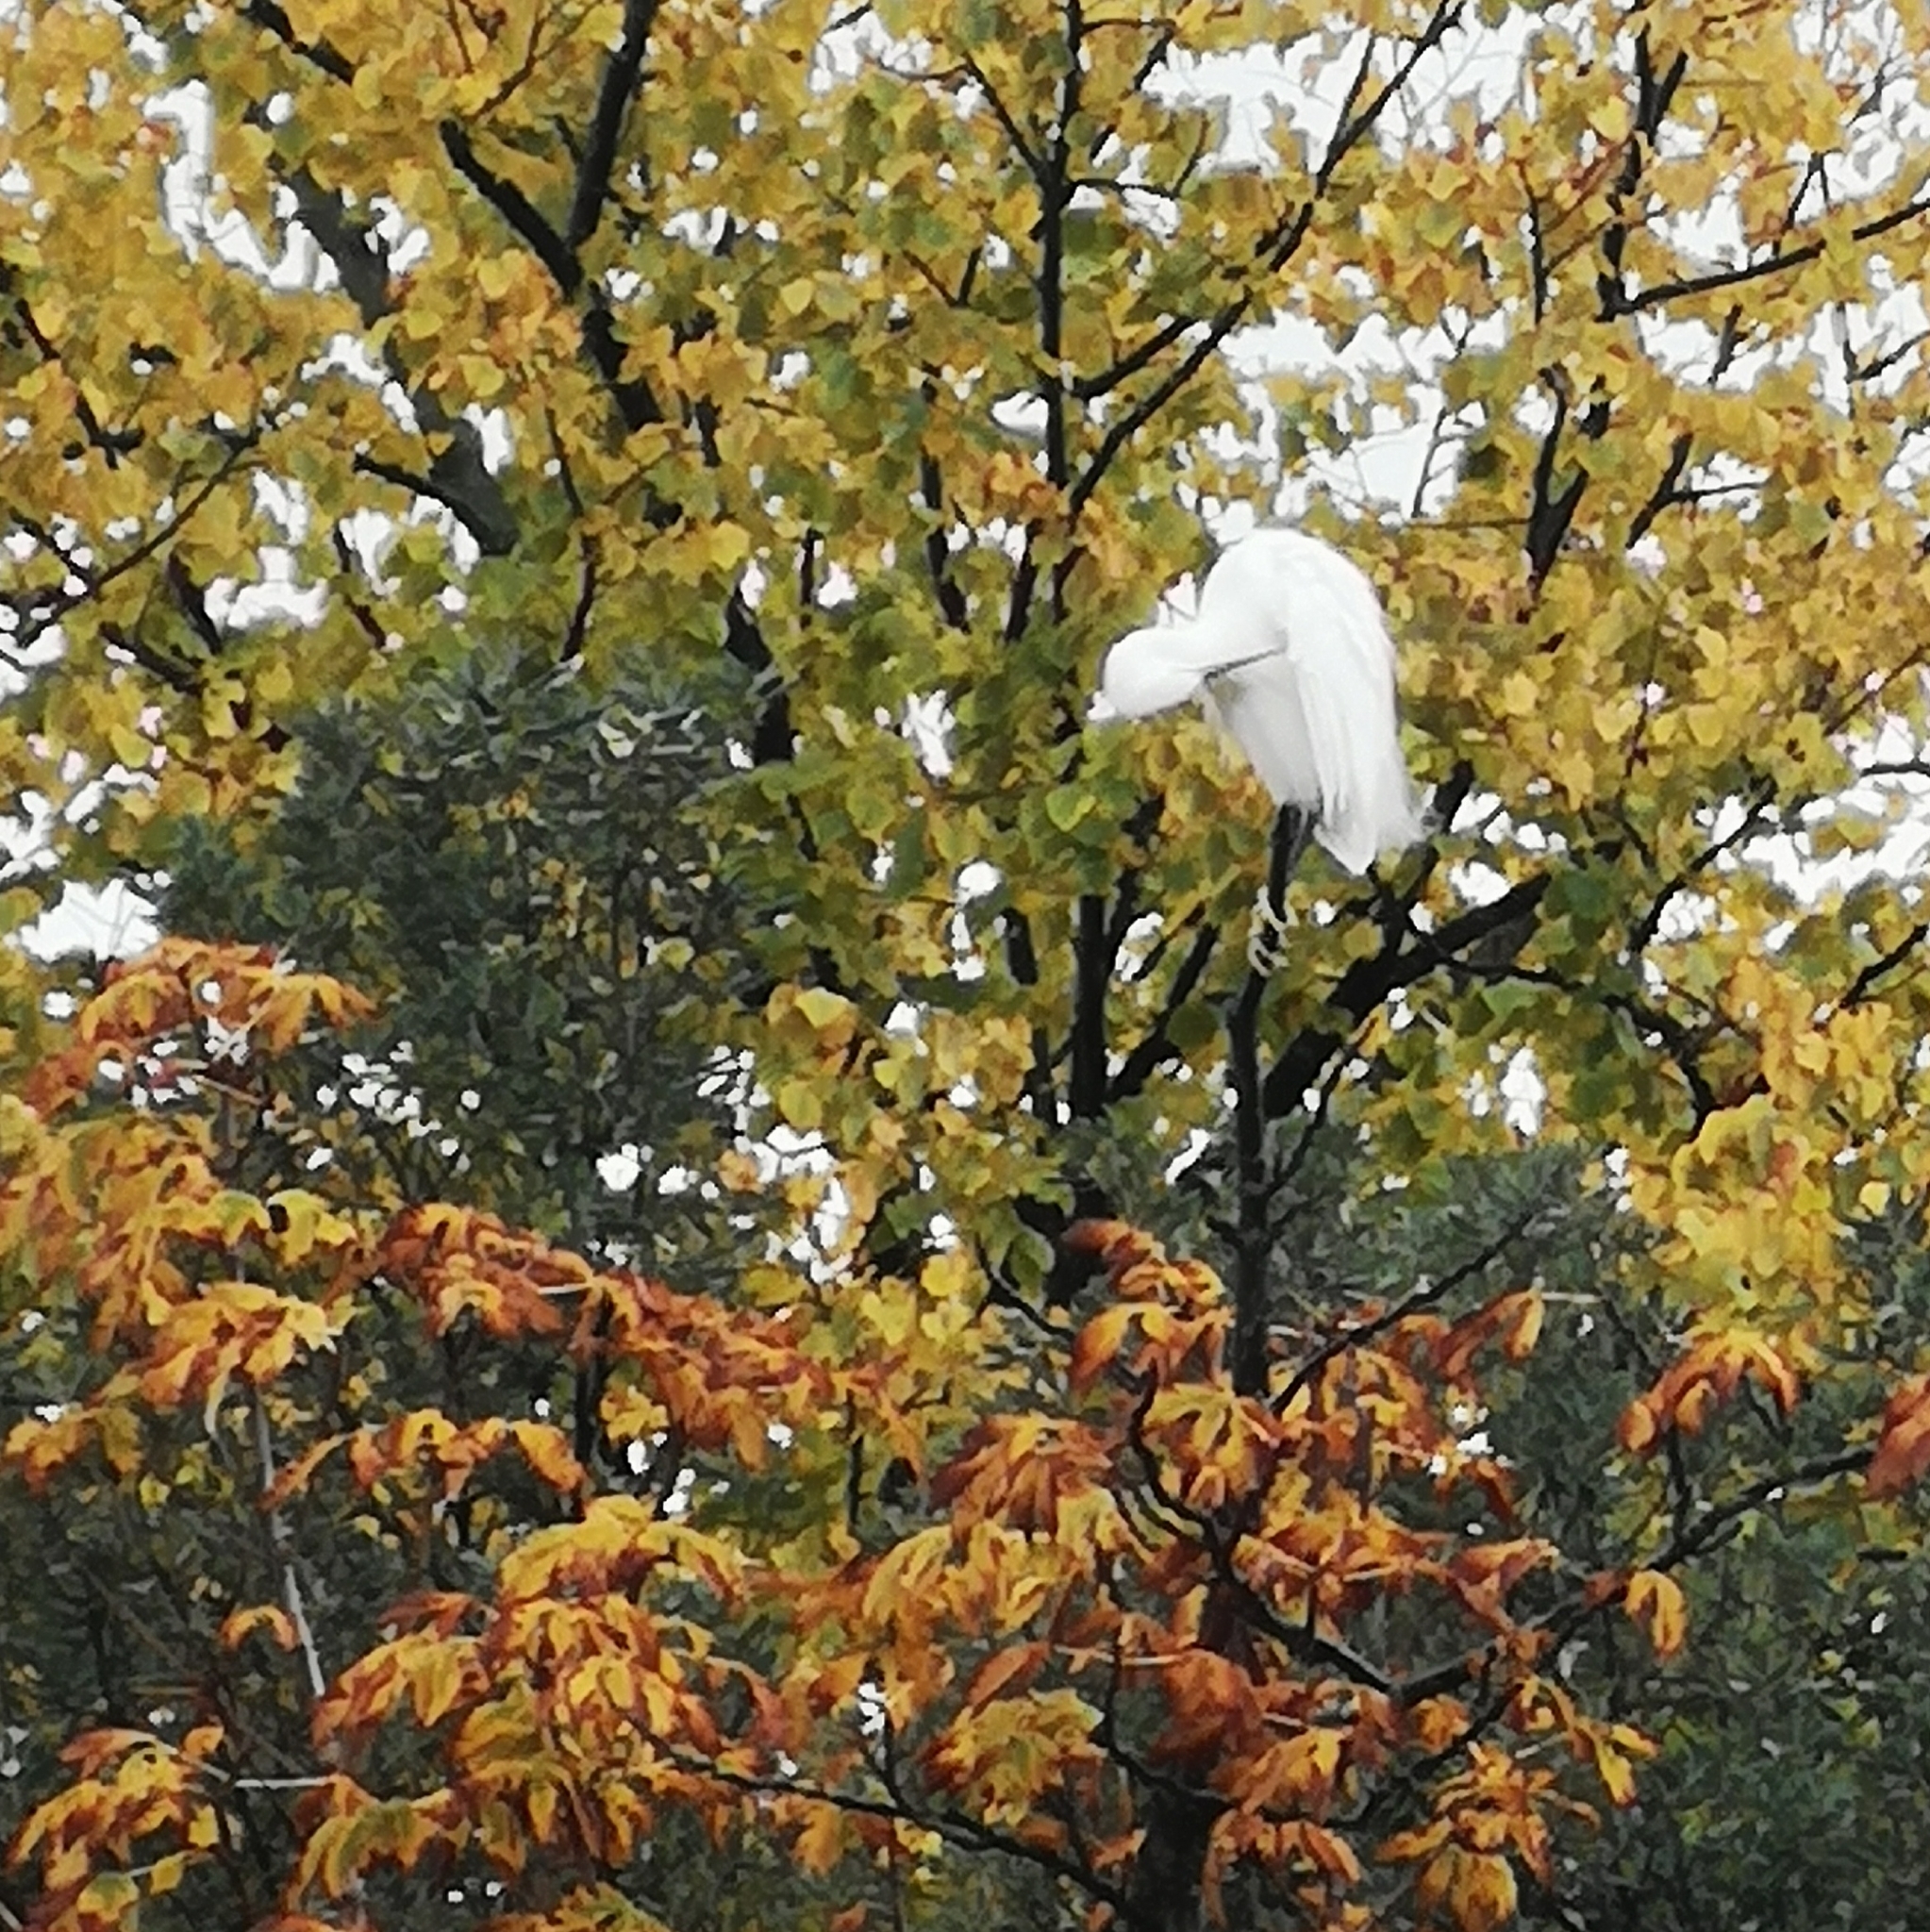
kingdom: Animalia
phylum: Chordata
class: Aves
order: Pelecaniformes
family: Ardeidae
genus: Egretta
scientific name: Egretta garzetta
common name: Little egret
